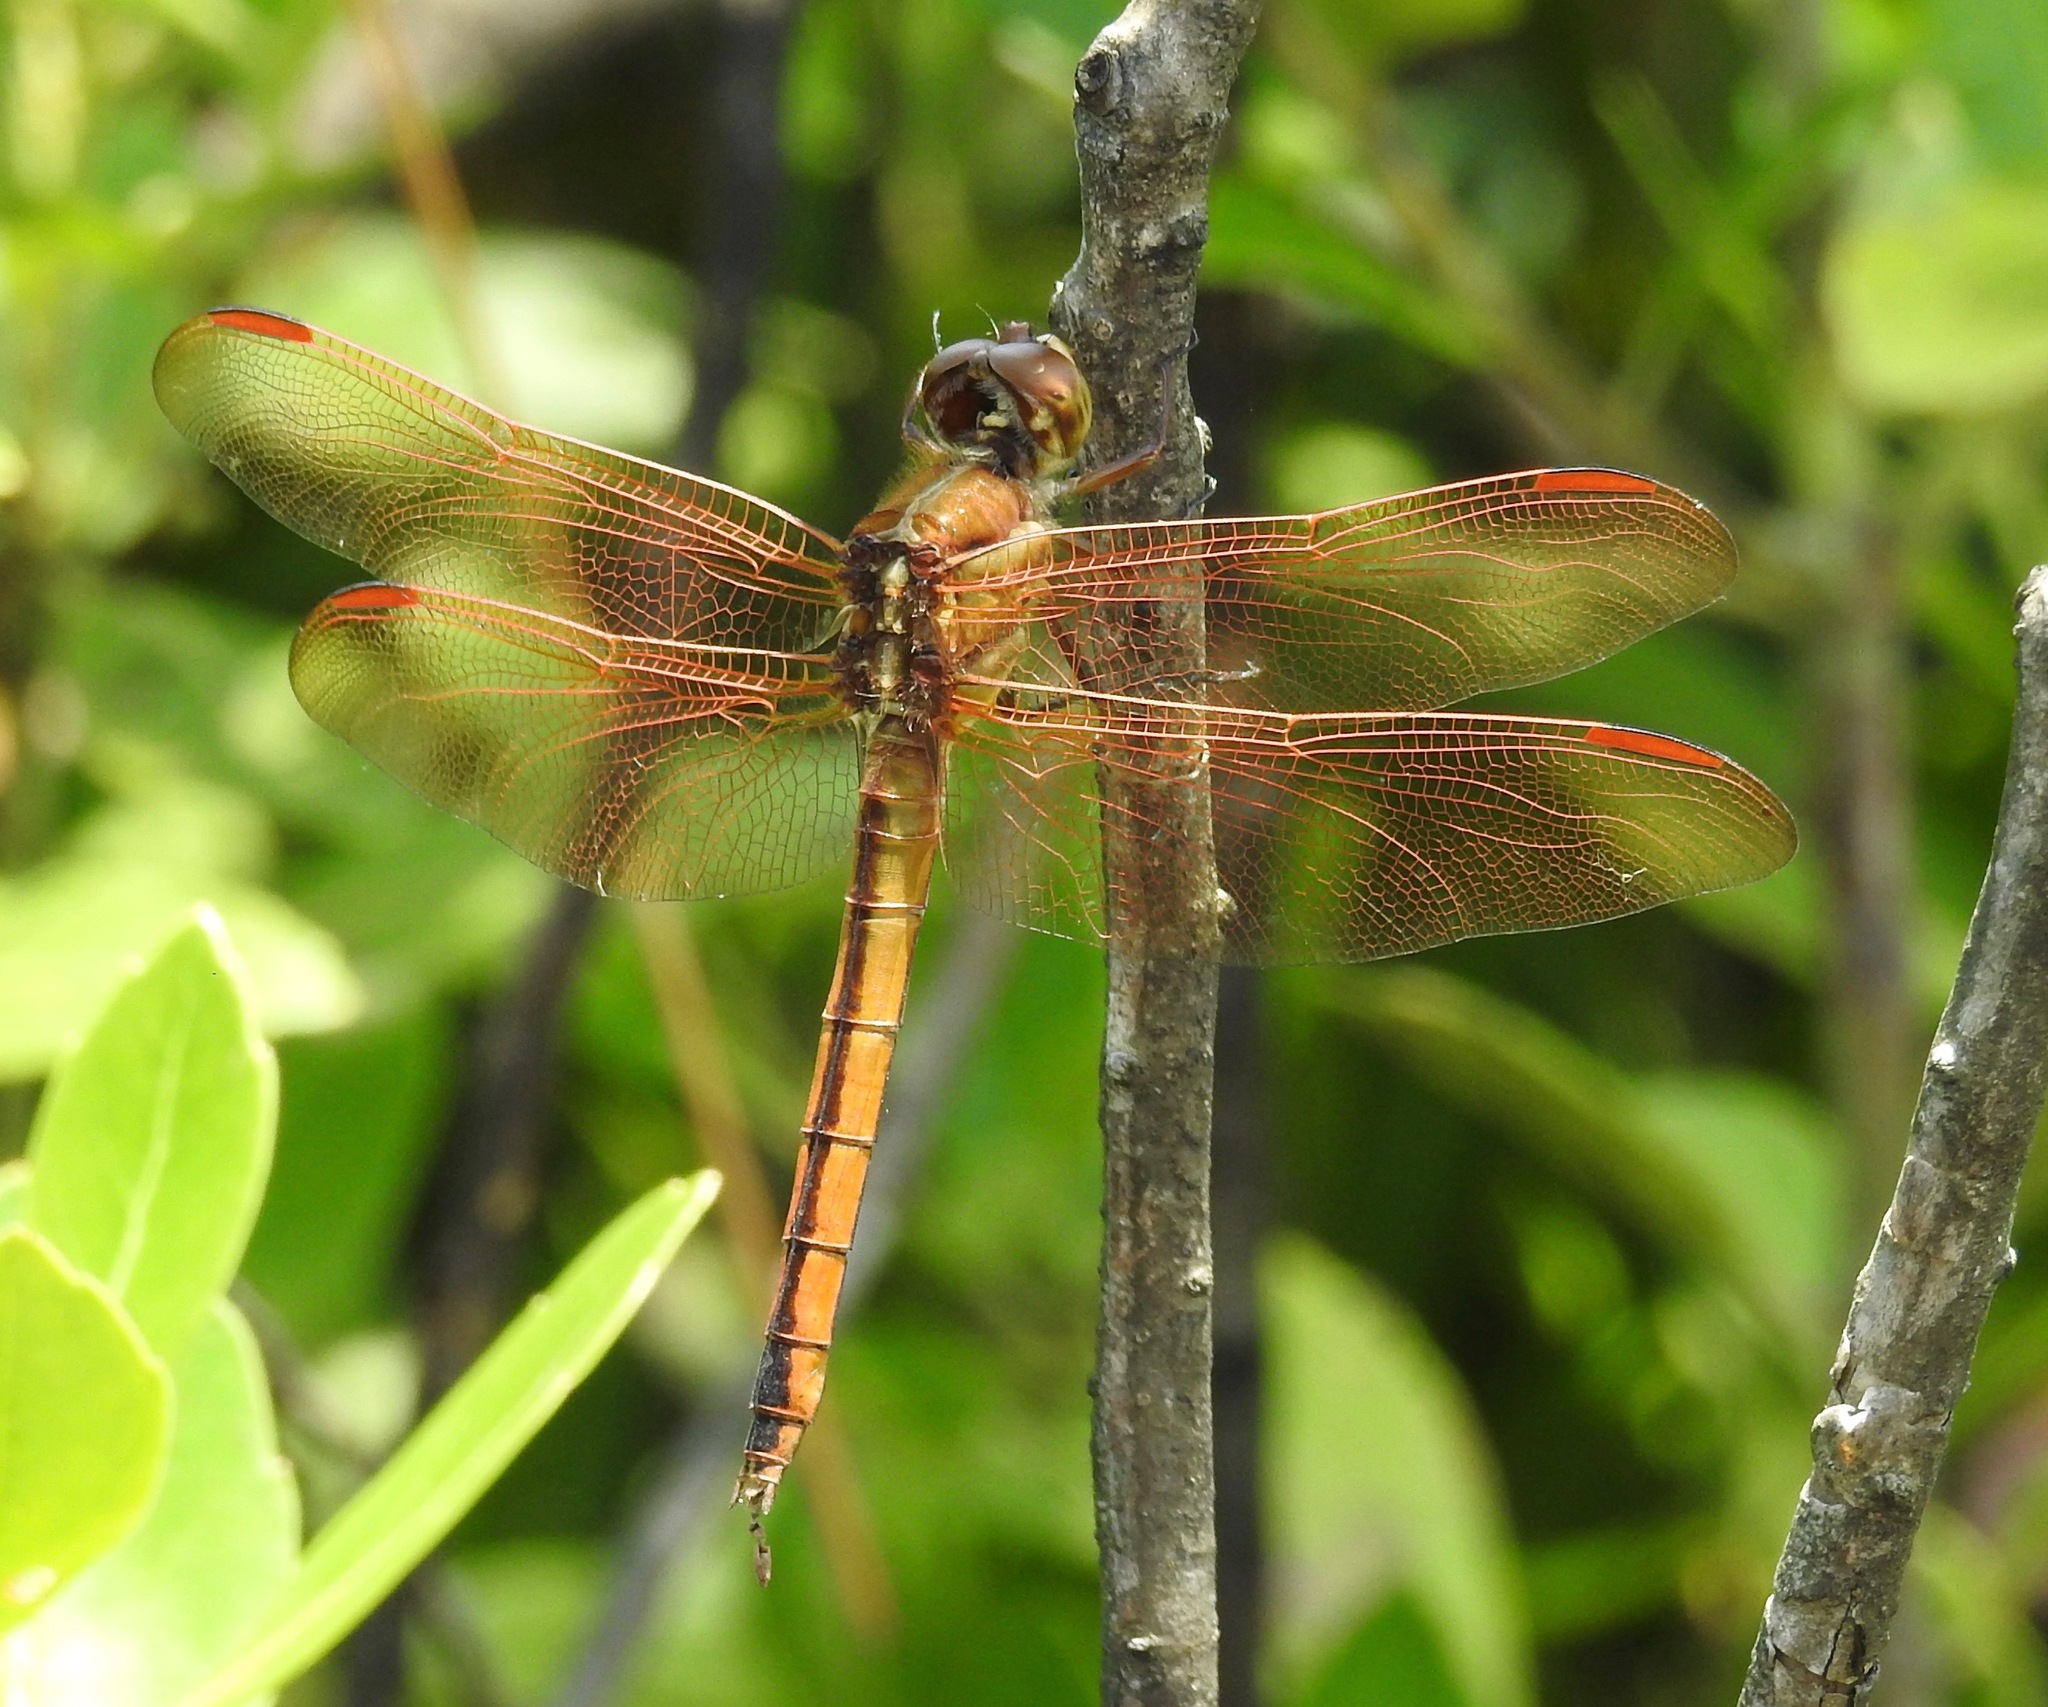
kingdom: Animalia
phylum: Arthropoda
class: Insecta
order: Odonata
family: Libellulidae
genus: Libellula
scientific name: Libellula auripennis
